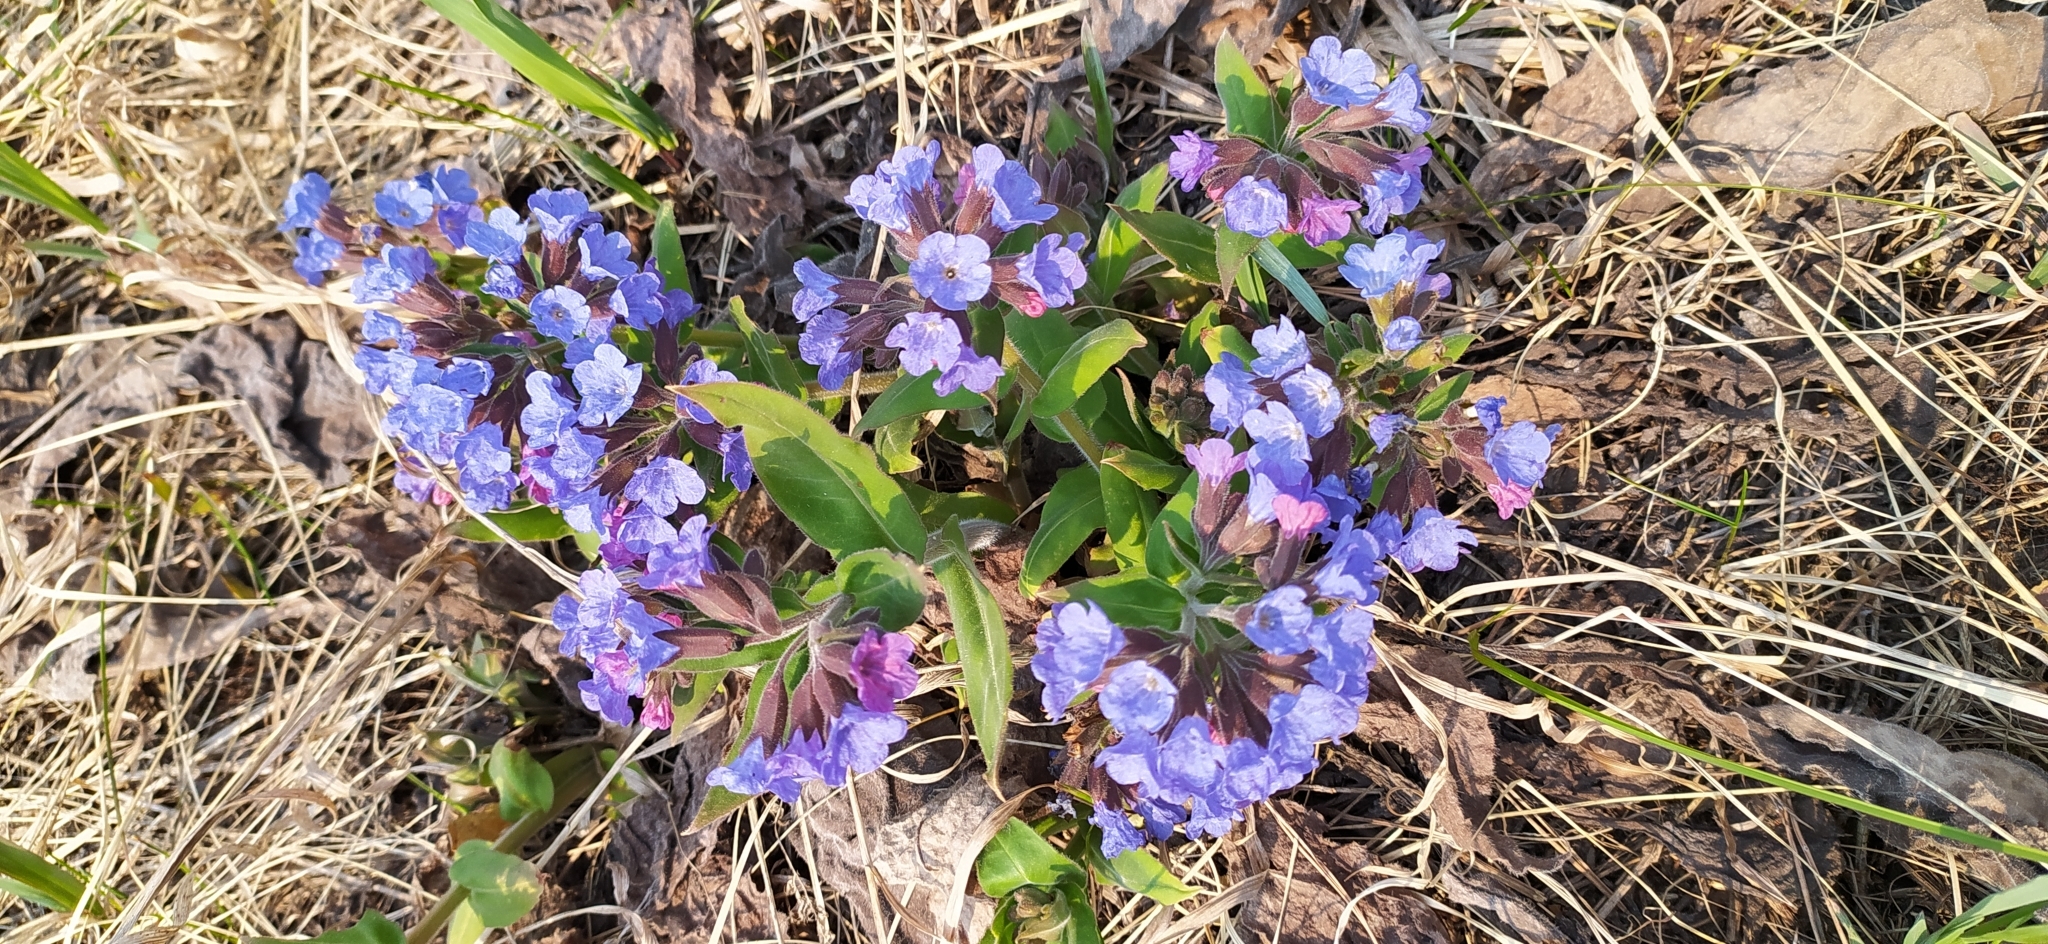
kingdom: Plantae
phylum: Tracheophyta
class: Magnoliopsida
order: Boraginales
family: Boraginaceae
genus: Pulmonaria
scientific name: Pulmonaria mollis
